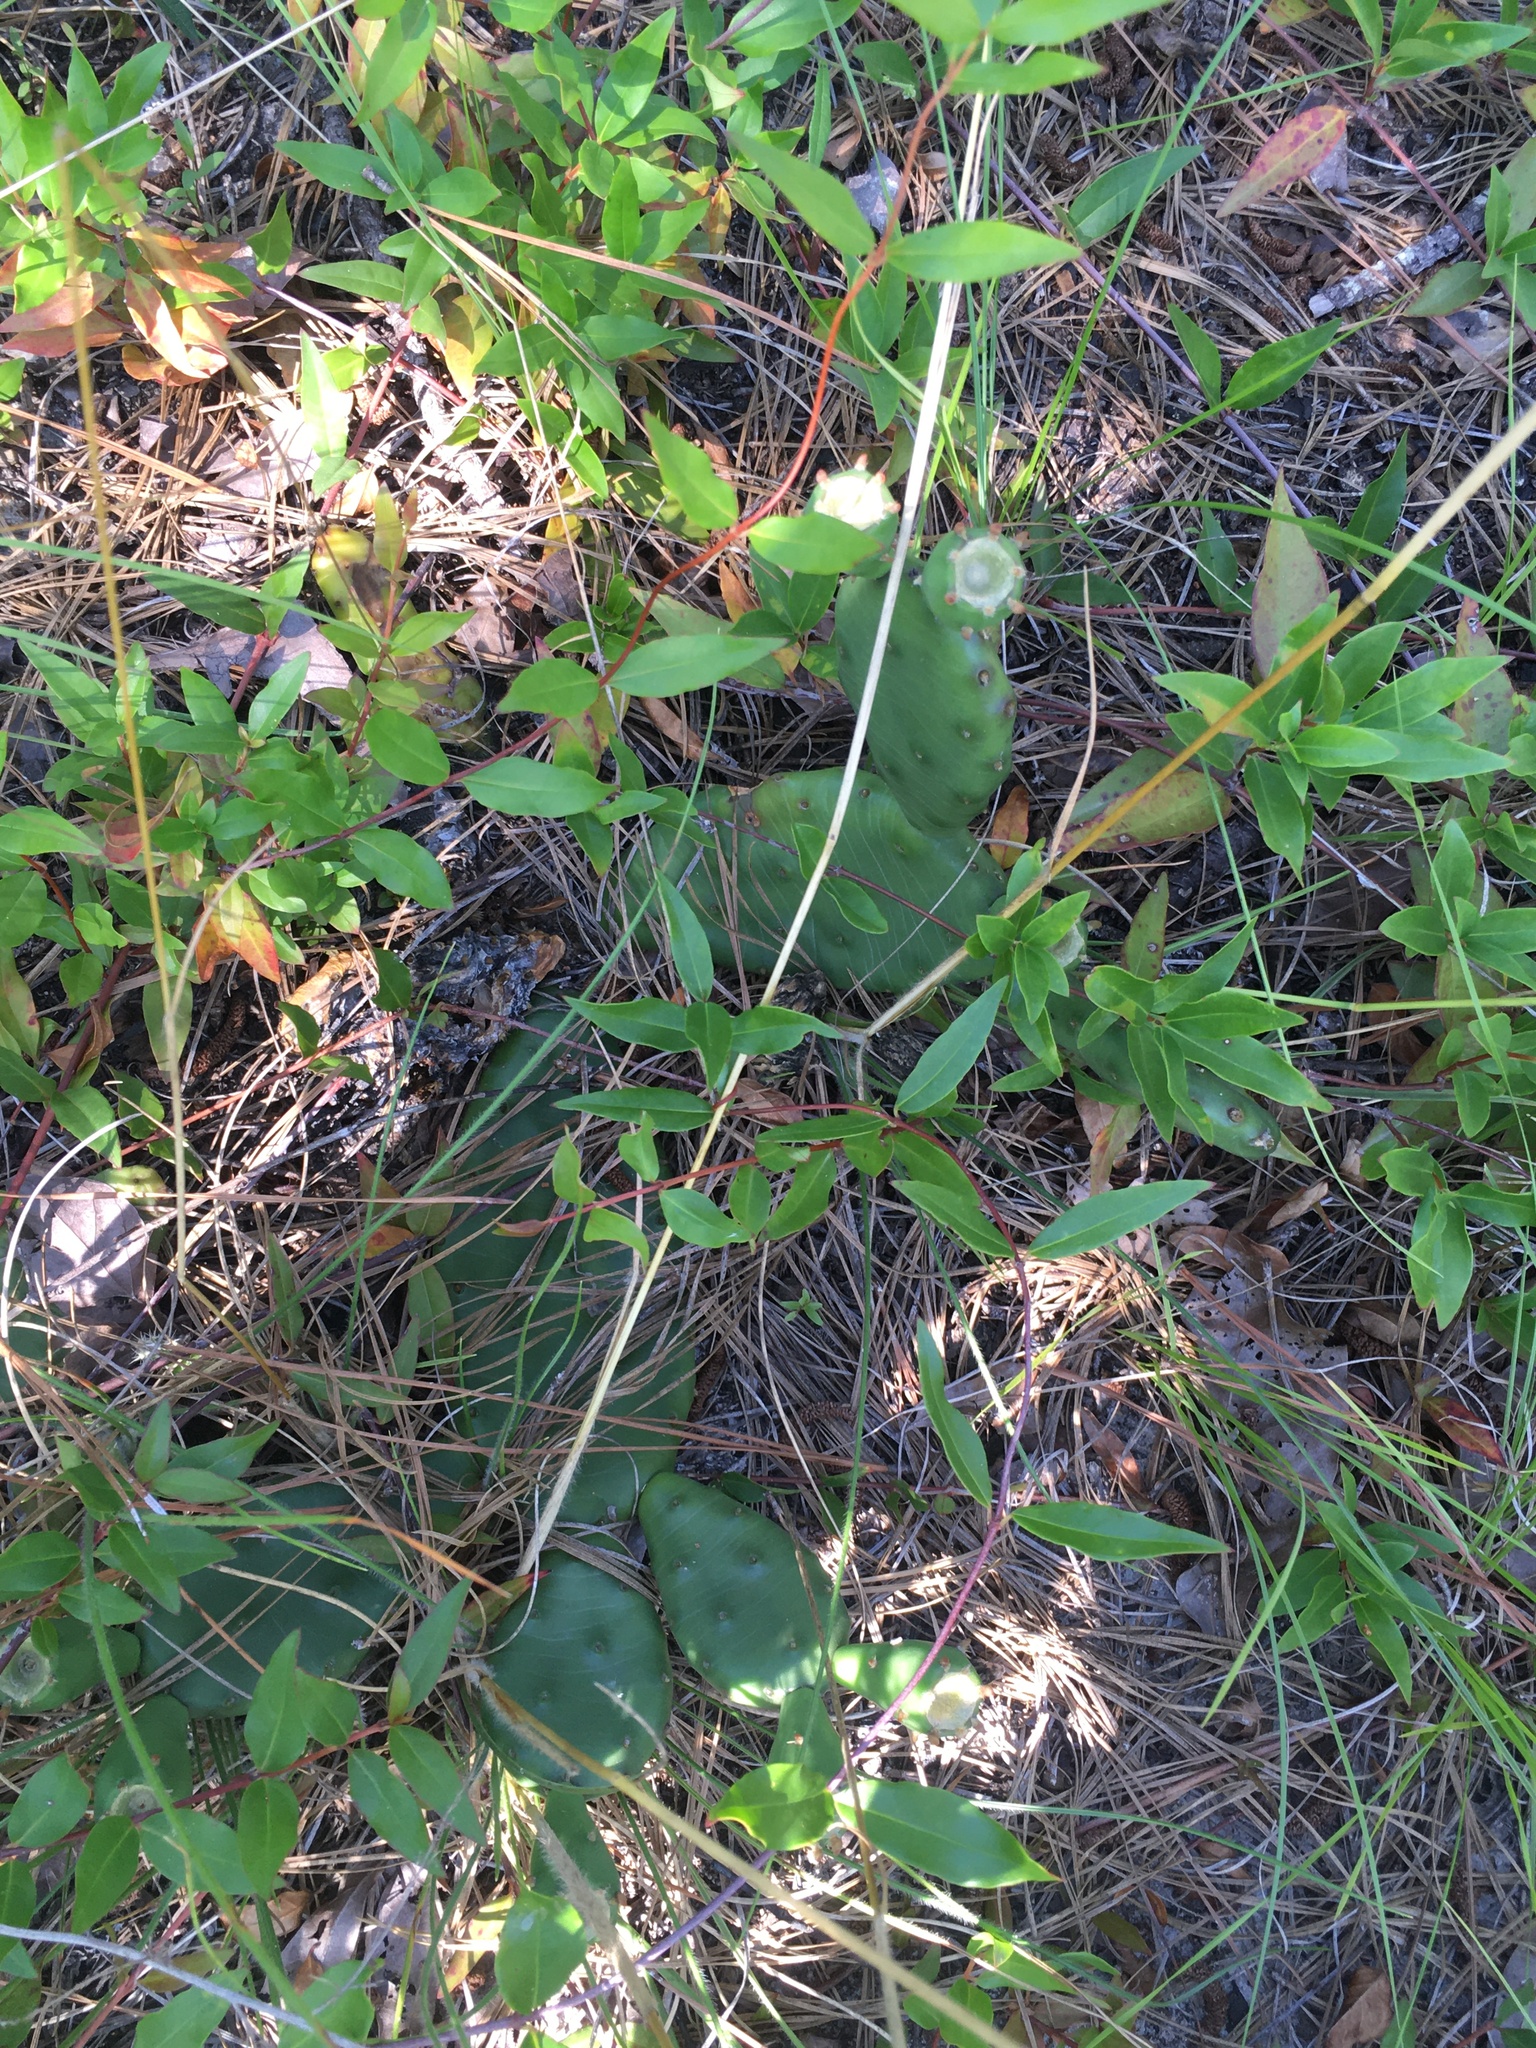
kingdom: Plantae
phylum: Tracheophyta
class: Magnoliopsida
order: Caryophyllales
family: Cactaceae
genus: Opuntia
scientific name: Opuntia mesacantha
